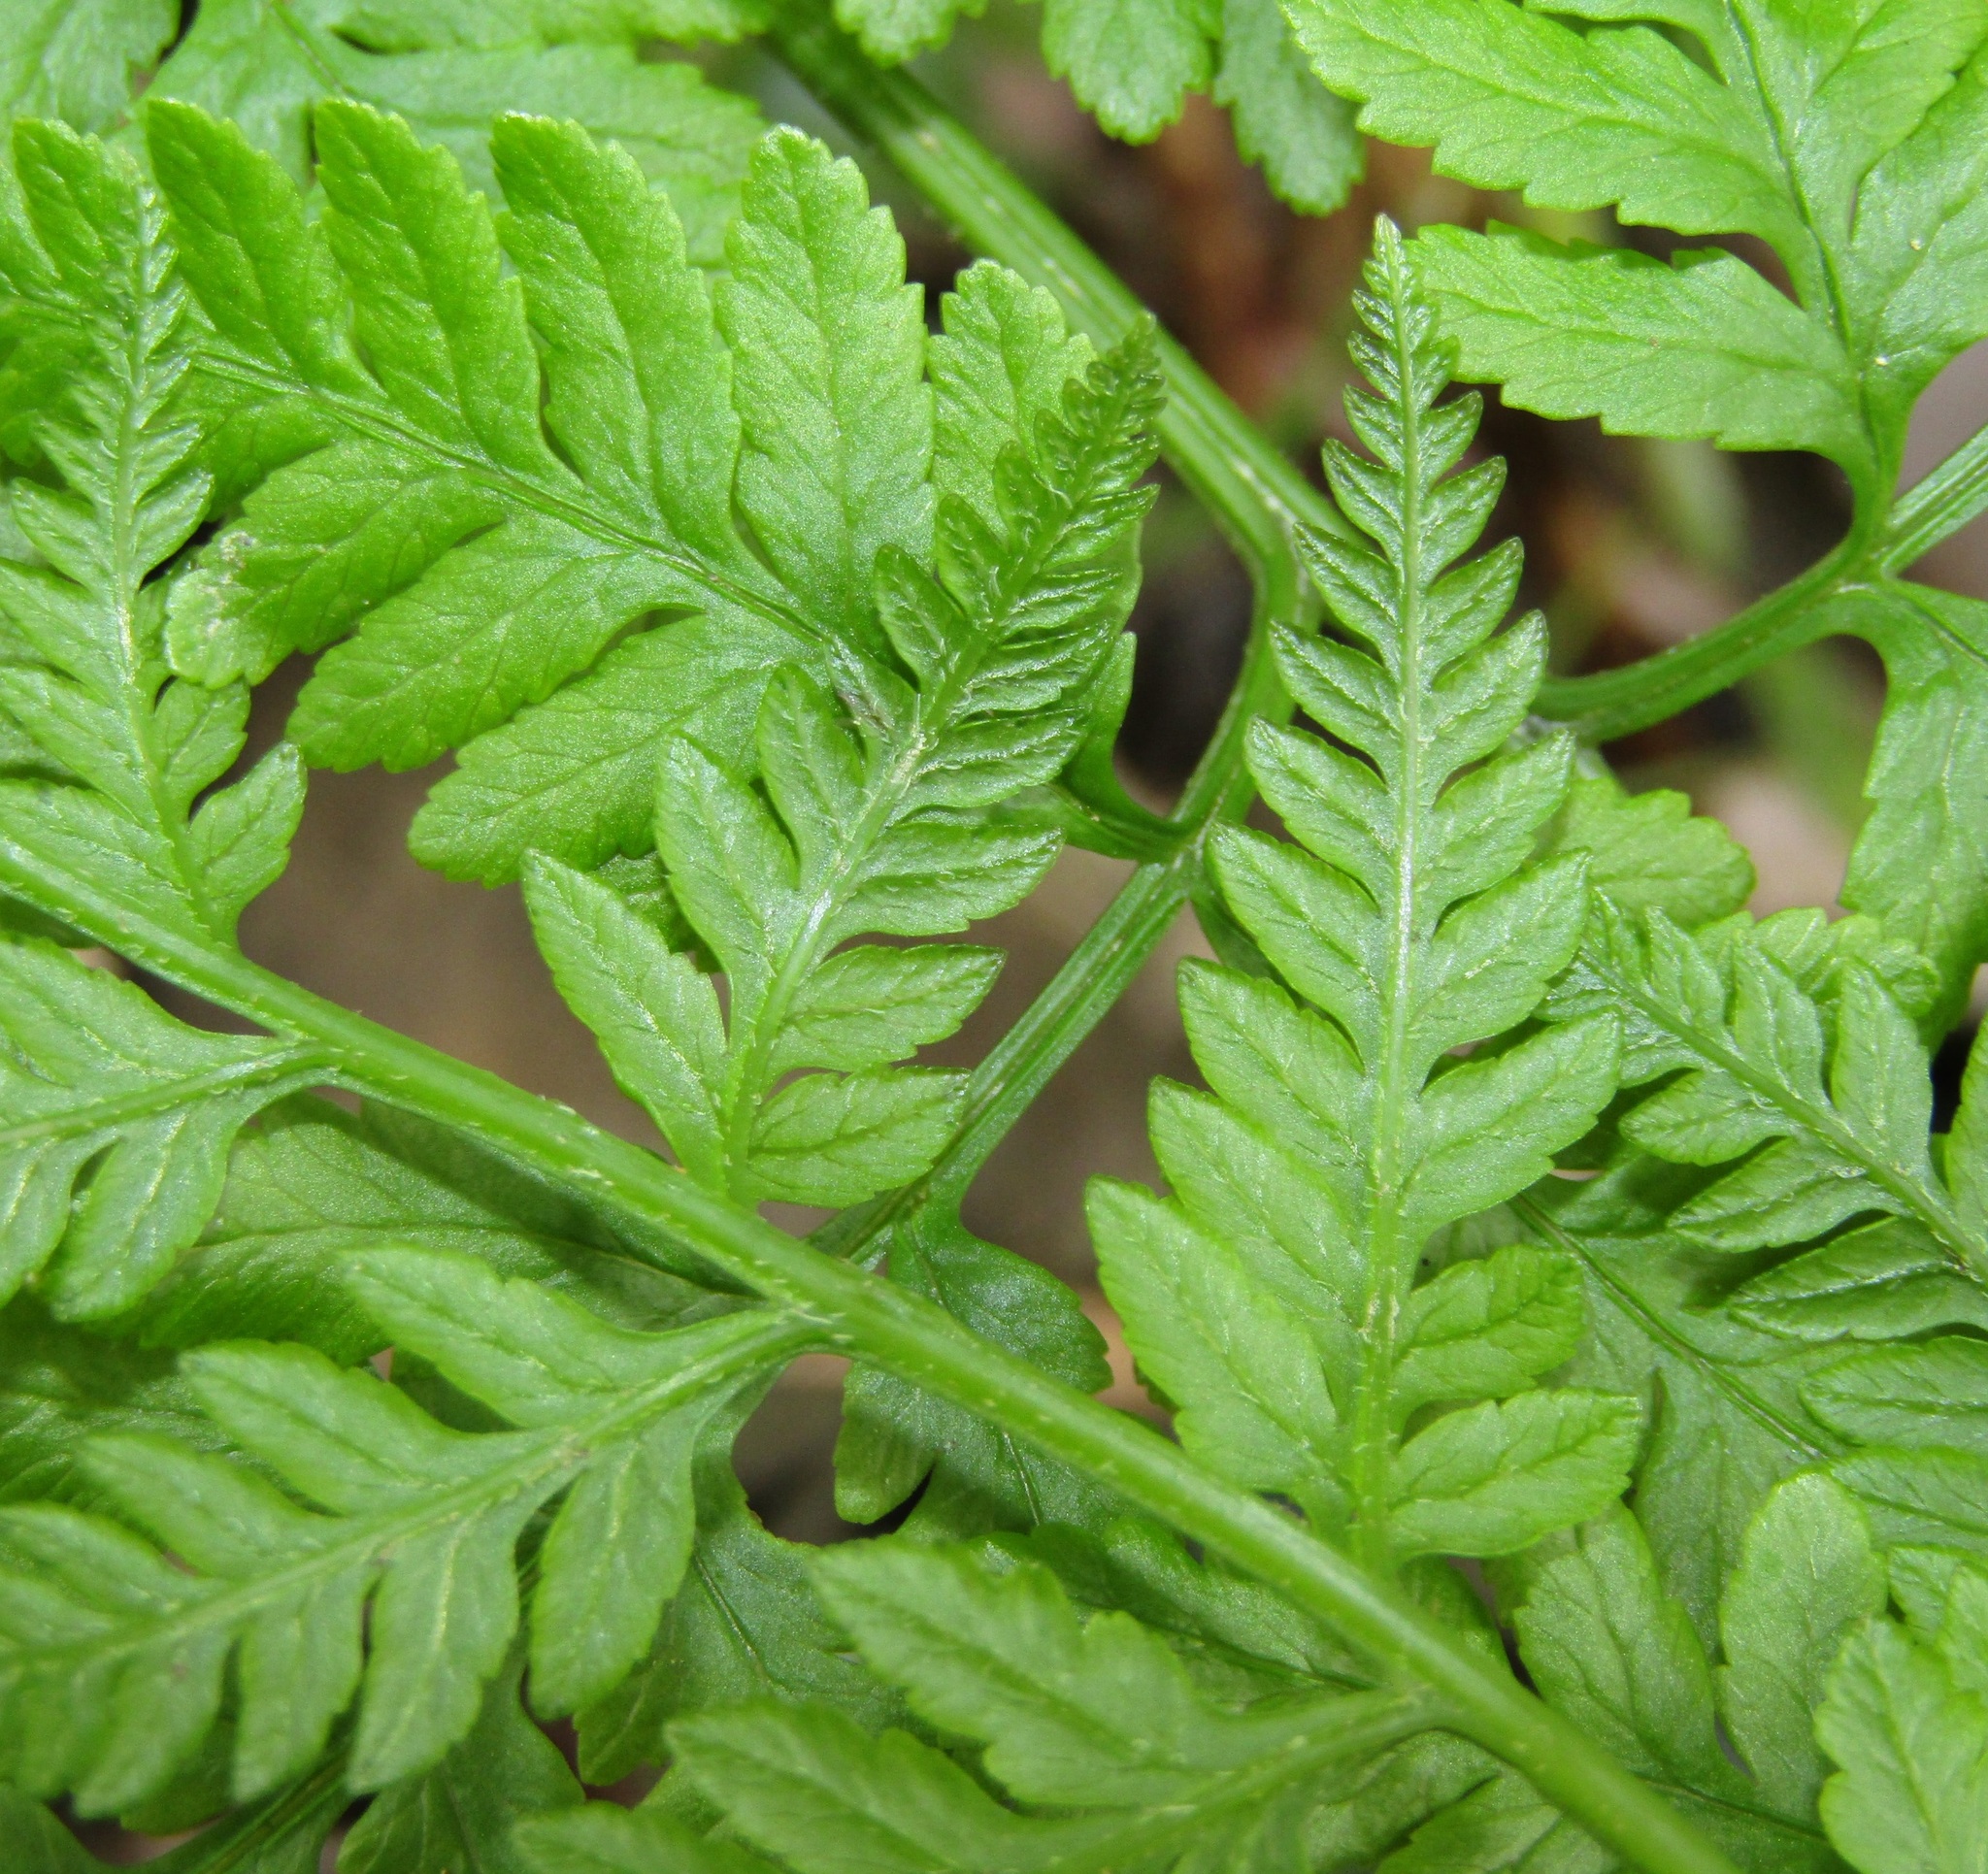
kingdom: Plantae
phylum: Tracheophyta
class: Polypodiopsida
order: Polypodiales
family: Pteridaceae
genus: Pteris
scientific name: Pteris tremula
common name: Australian brake
